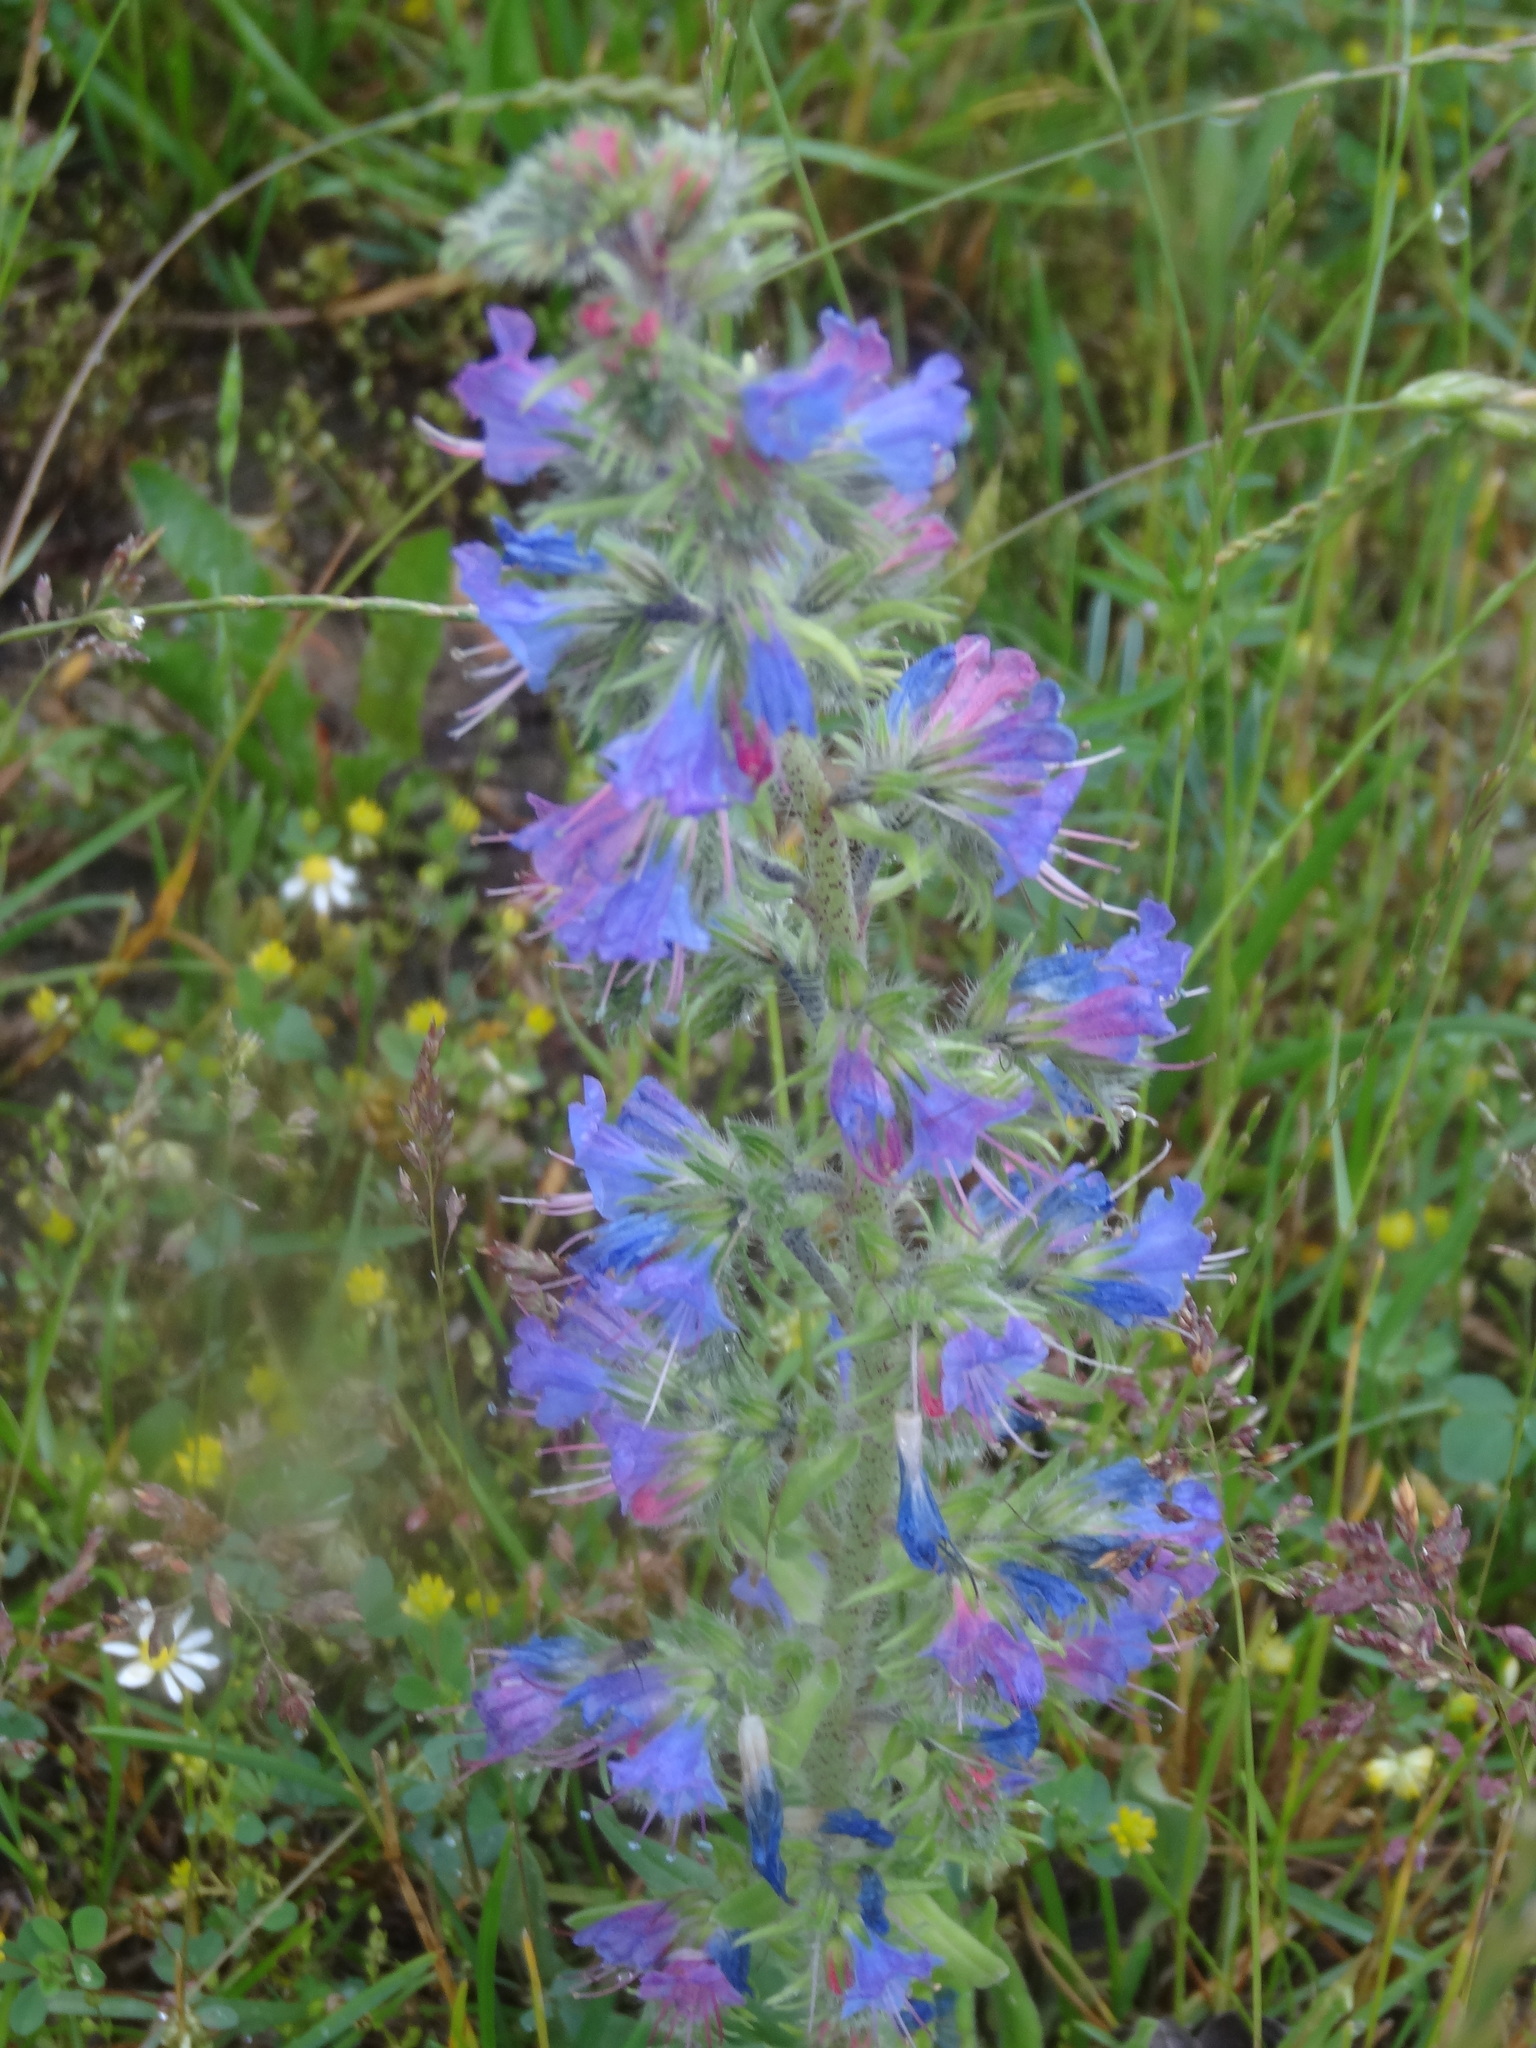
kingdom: Plantae
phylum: Tracheophyta
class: Magnoliopsida
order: Boraginales
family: Boraginaceae
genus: Echium
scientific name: Echium vulgare
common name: Common viper's bugloss
